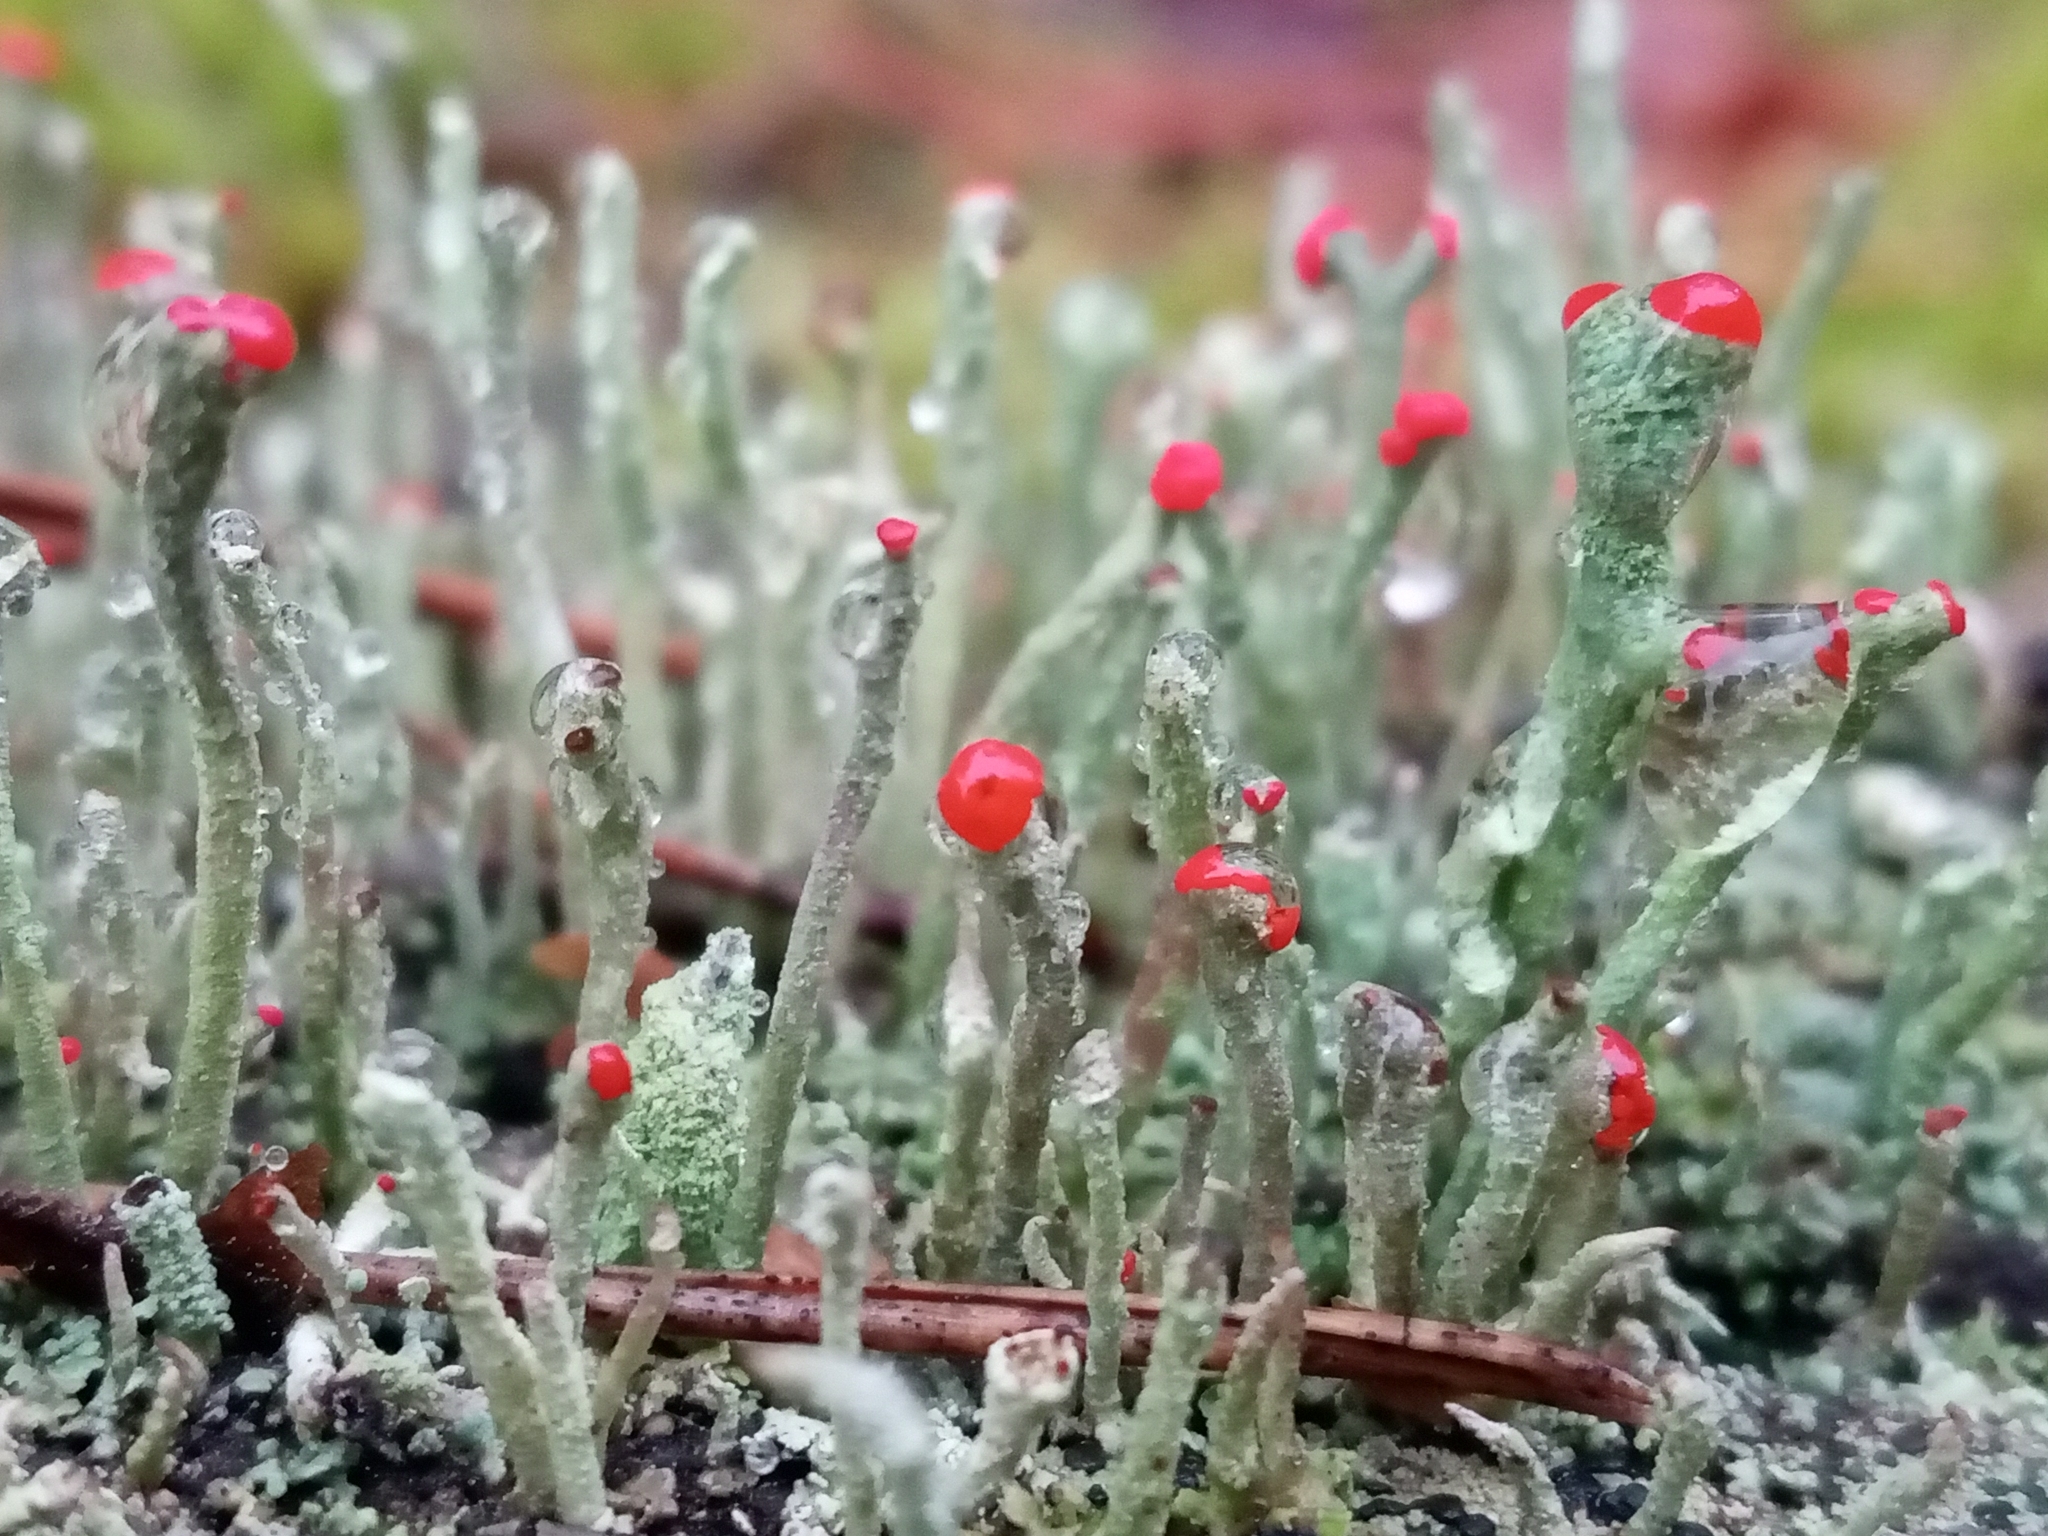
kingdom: Fungi
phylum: Ascomycota
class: Lecanoromycetes
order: Lecanorales
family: Cladoniaceae
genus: Cladonia
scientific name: Cladonia macilenta
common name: Lipstick powderhorn
